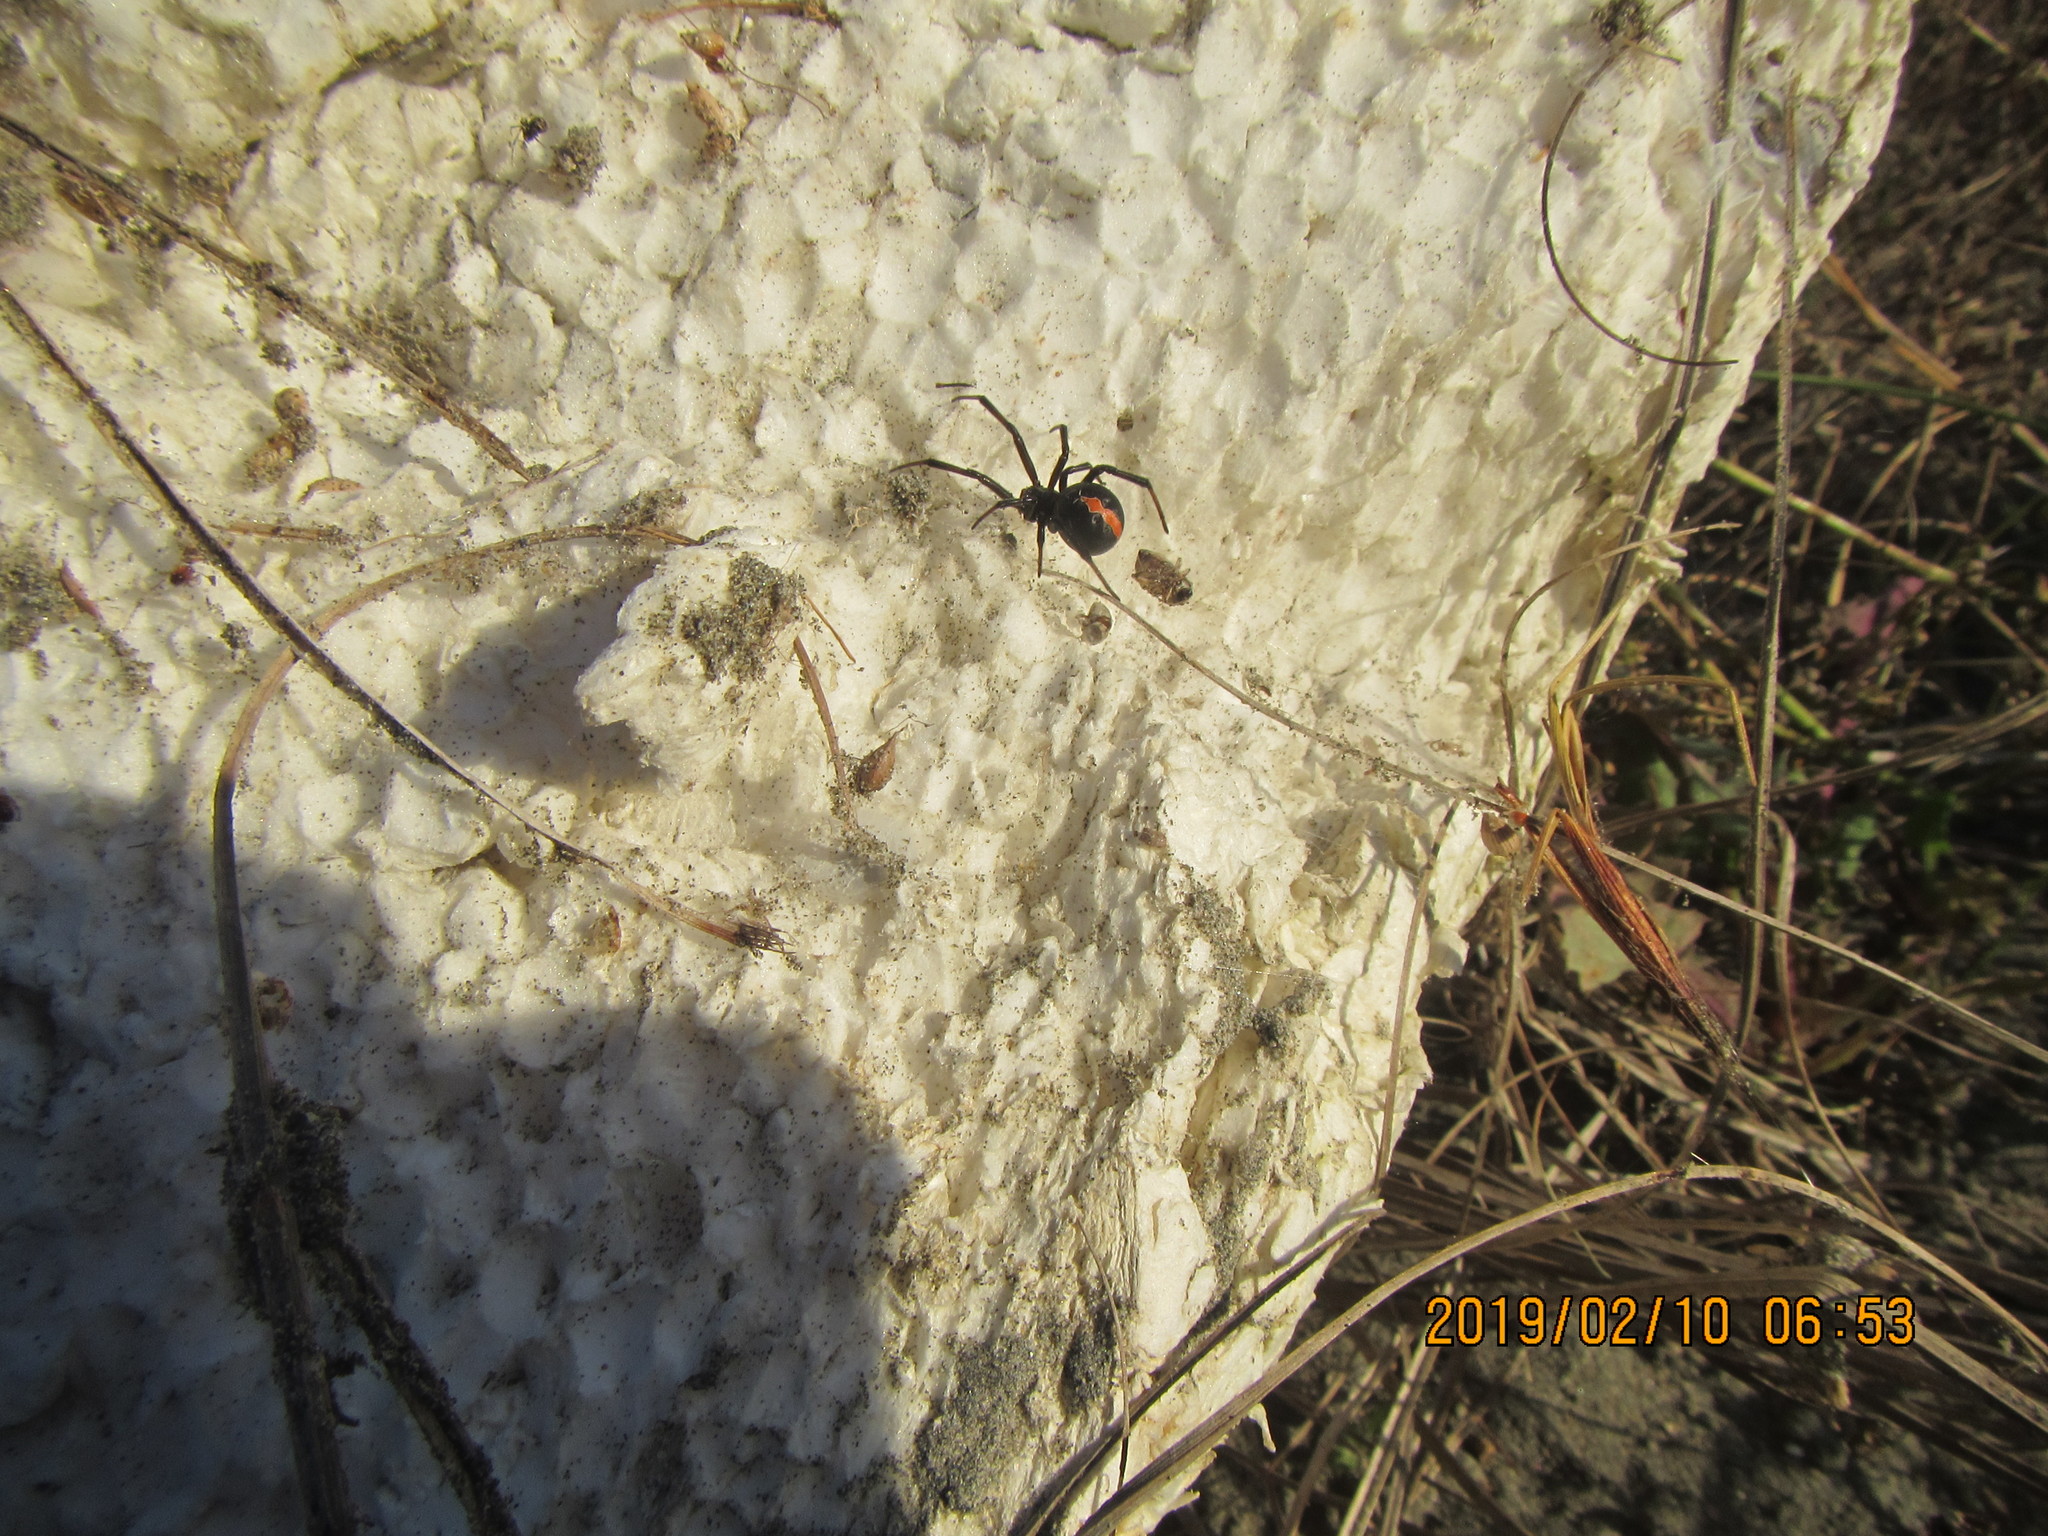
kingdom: Animalia
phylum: Arthropoda
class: Arachnida
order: Araneae
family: Theridiidae
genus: Latrodectus
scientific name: Latrodectus katipo
